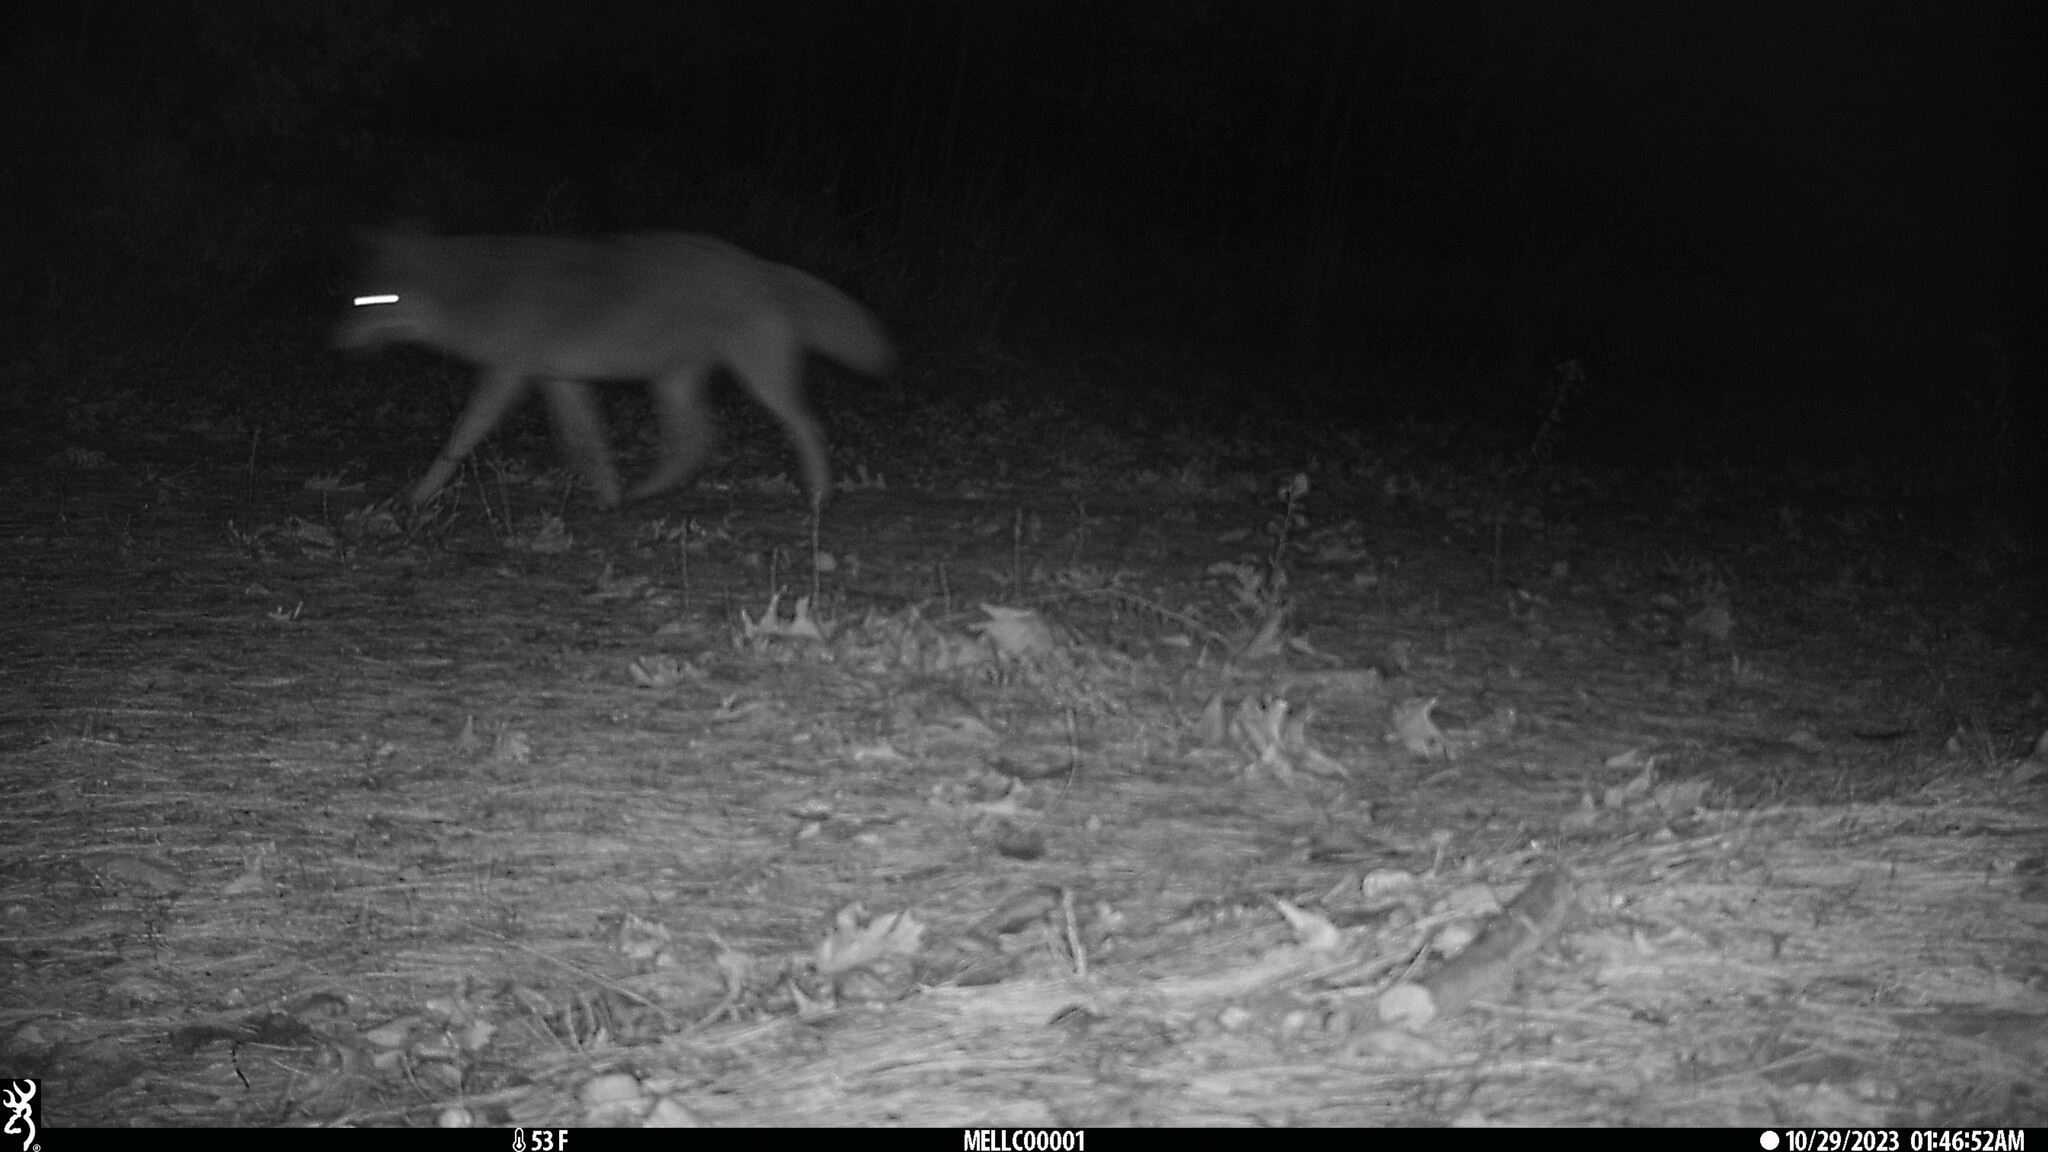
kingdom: Animalia
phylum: Chordata
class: Mammalia
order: Carnivora
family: Canidae
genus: Canis
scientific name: Canis latrans
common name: Coyote
